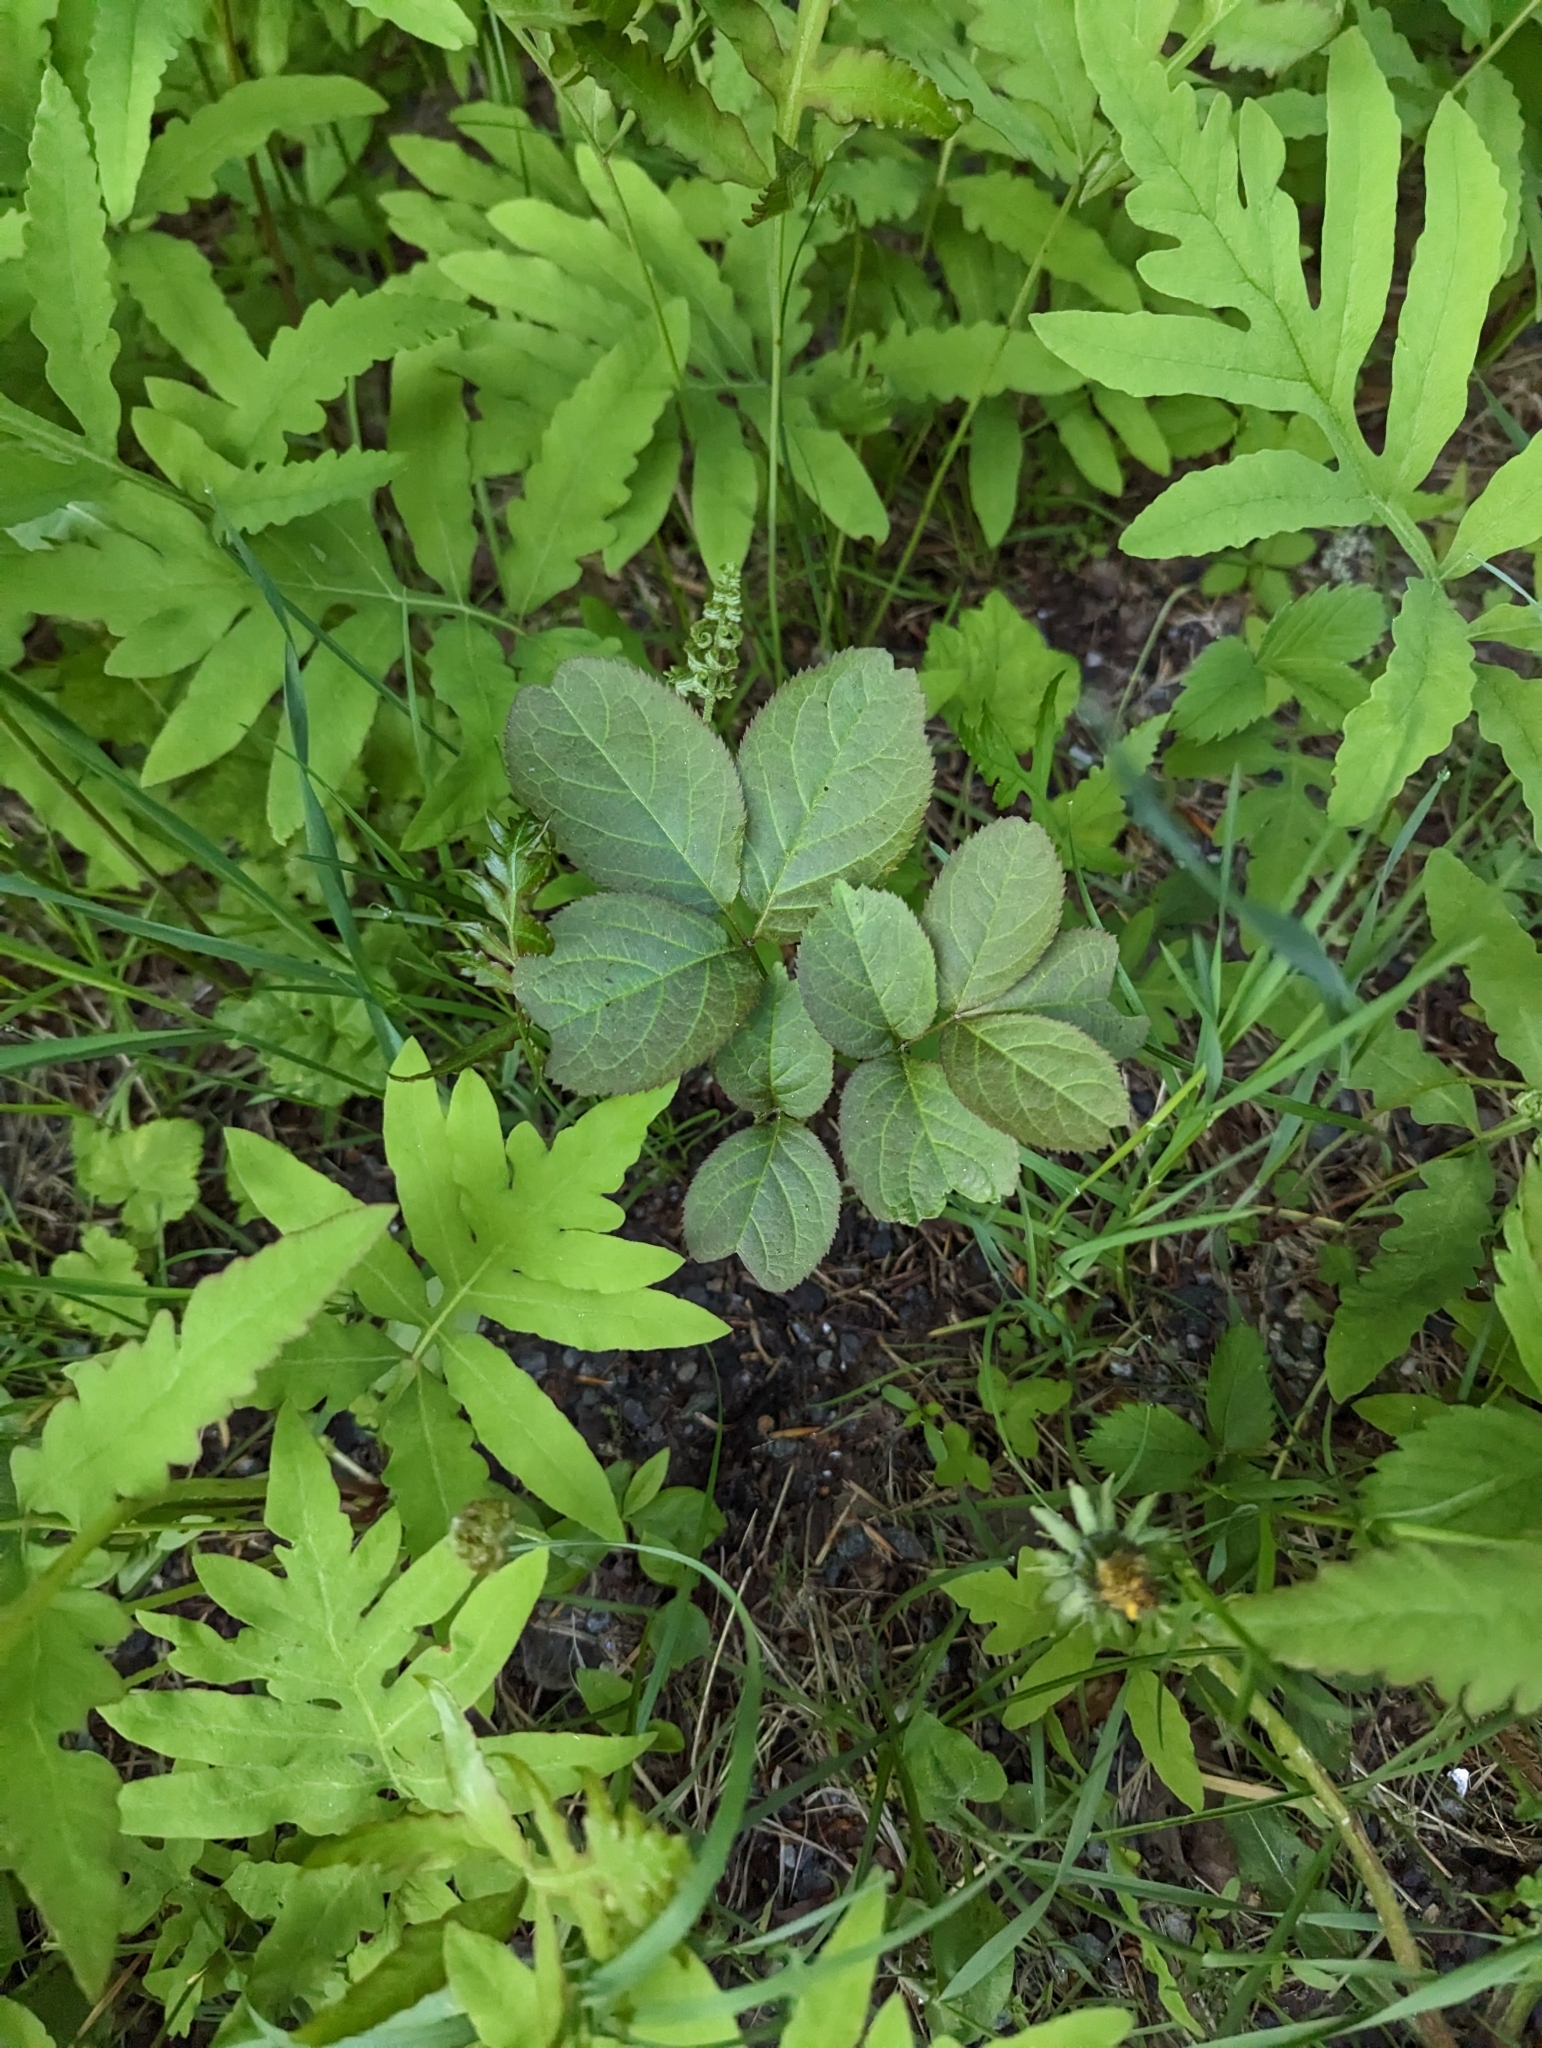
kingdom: Plantae
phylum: Tracheophyta
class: Magnoliopsida
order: Apiales
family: Araliaceae
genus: Aralia
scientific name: Aralia nudicaulis
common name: Wild sarsaparilla
